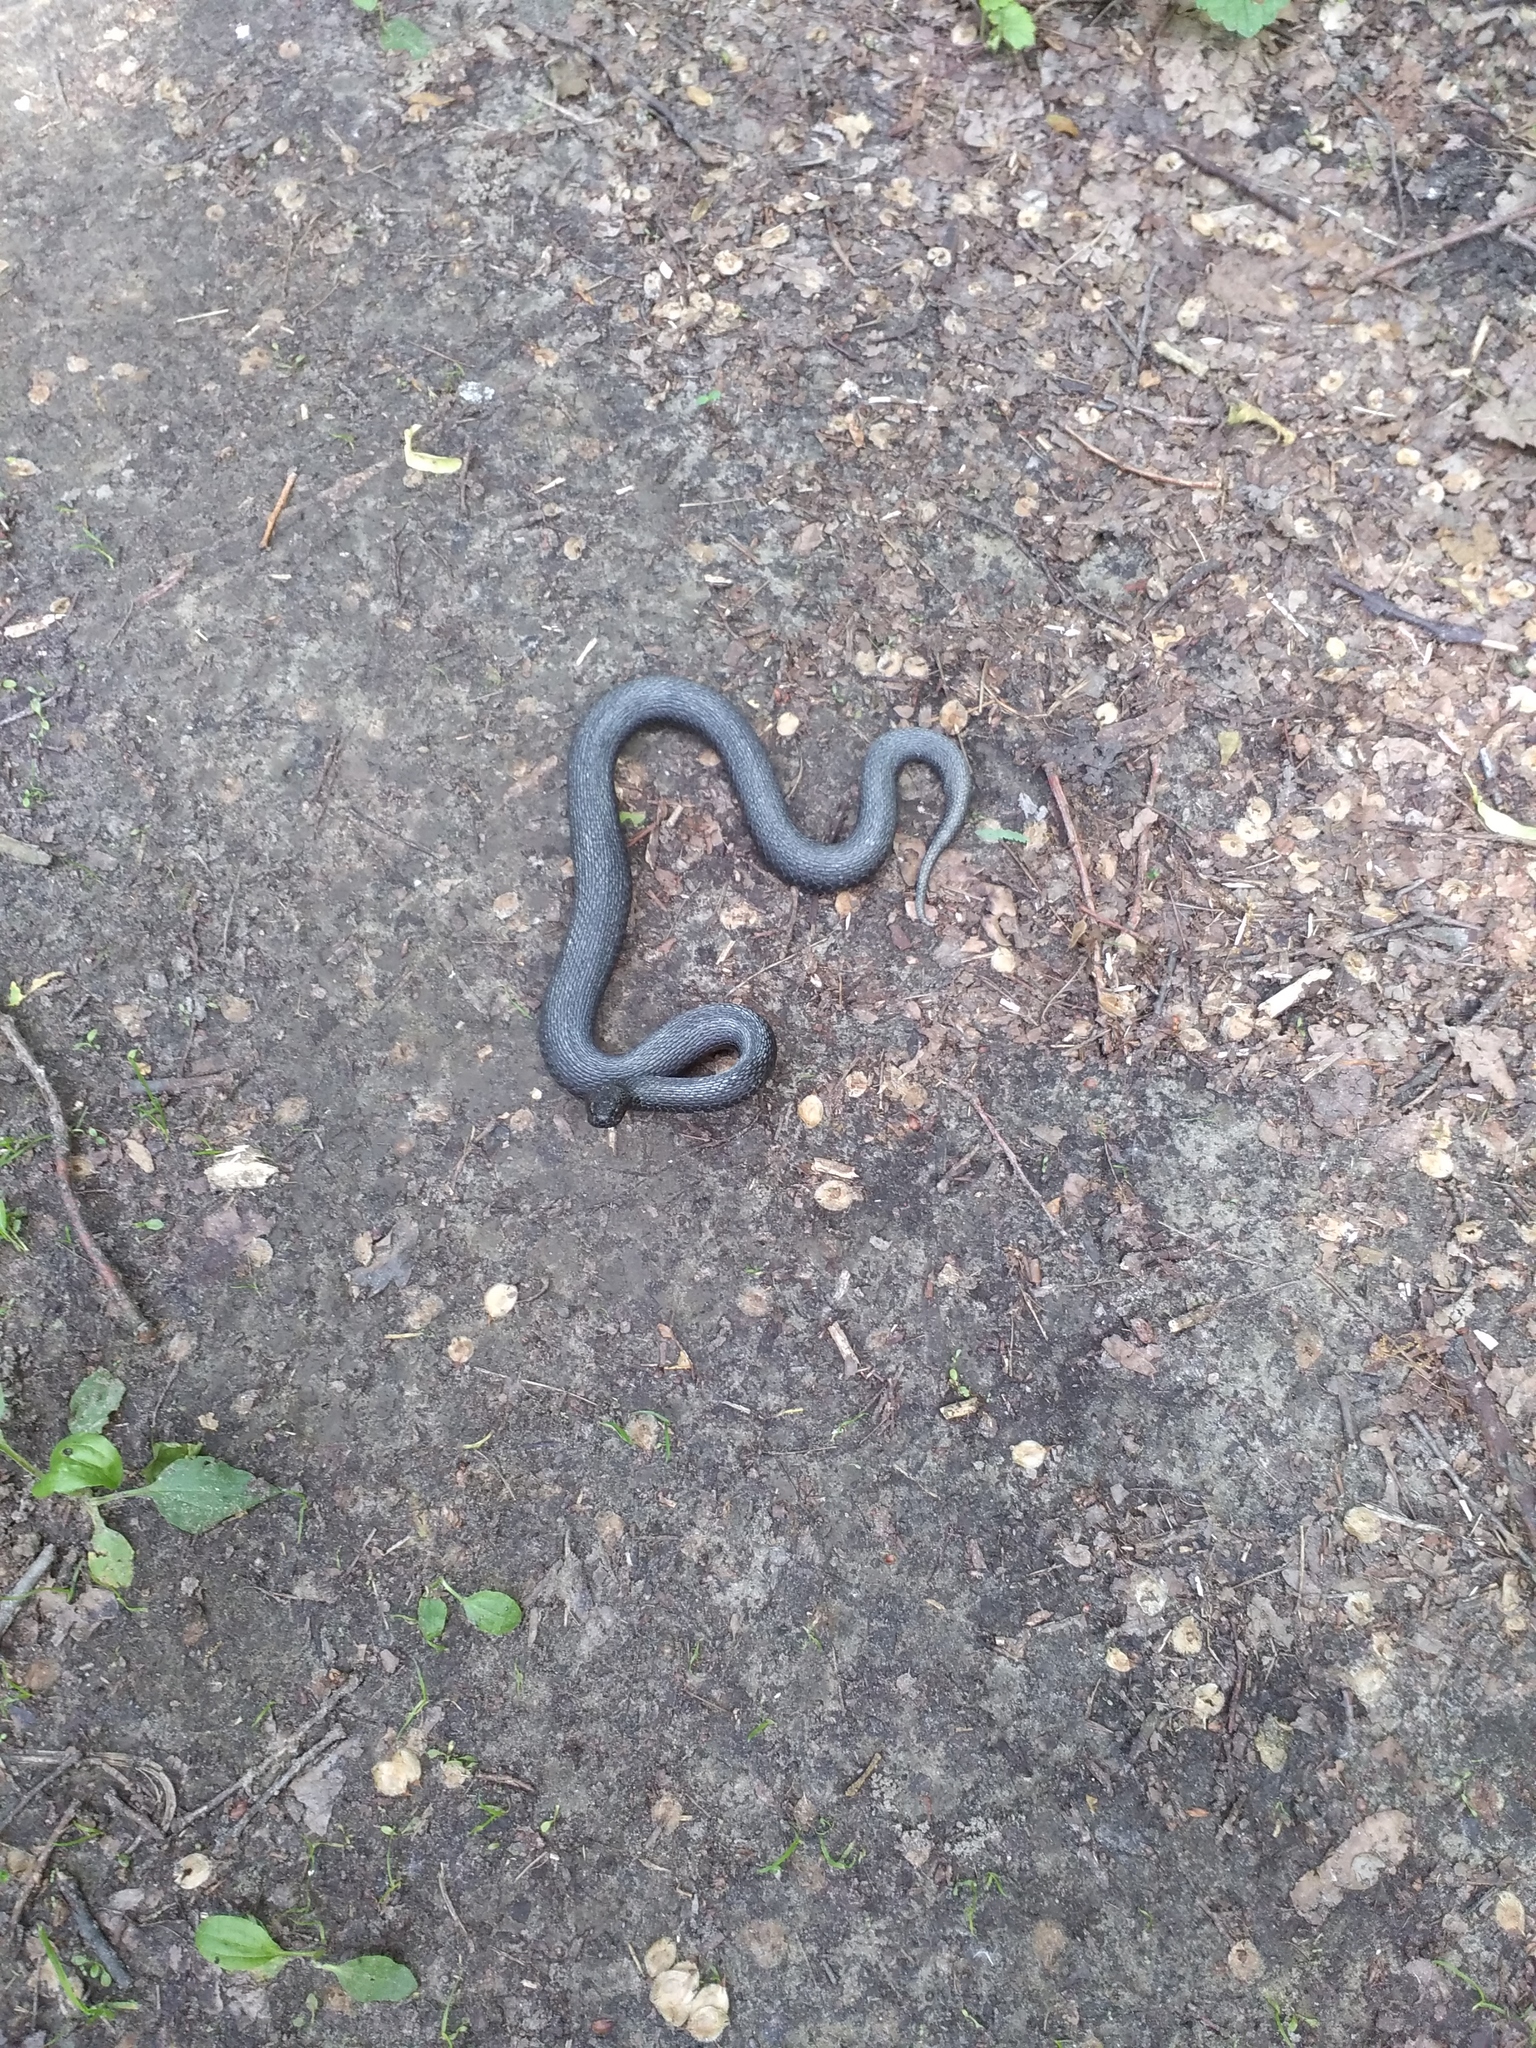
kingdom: Animalia
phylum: Chordata
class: Squamata
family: Viperidae
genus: Vipera
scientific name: Vipera nikolskii
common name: Adder
